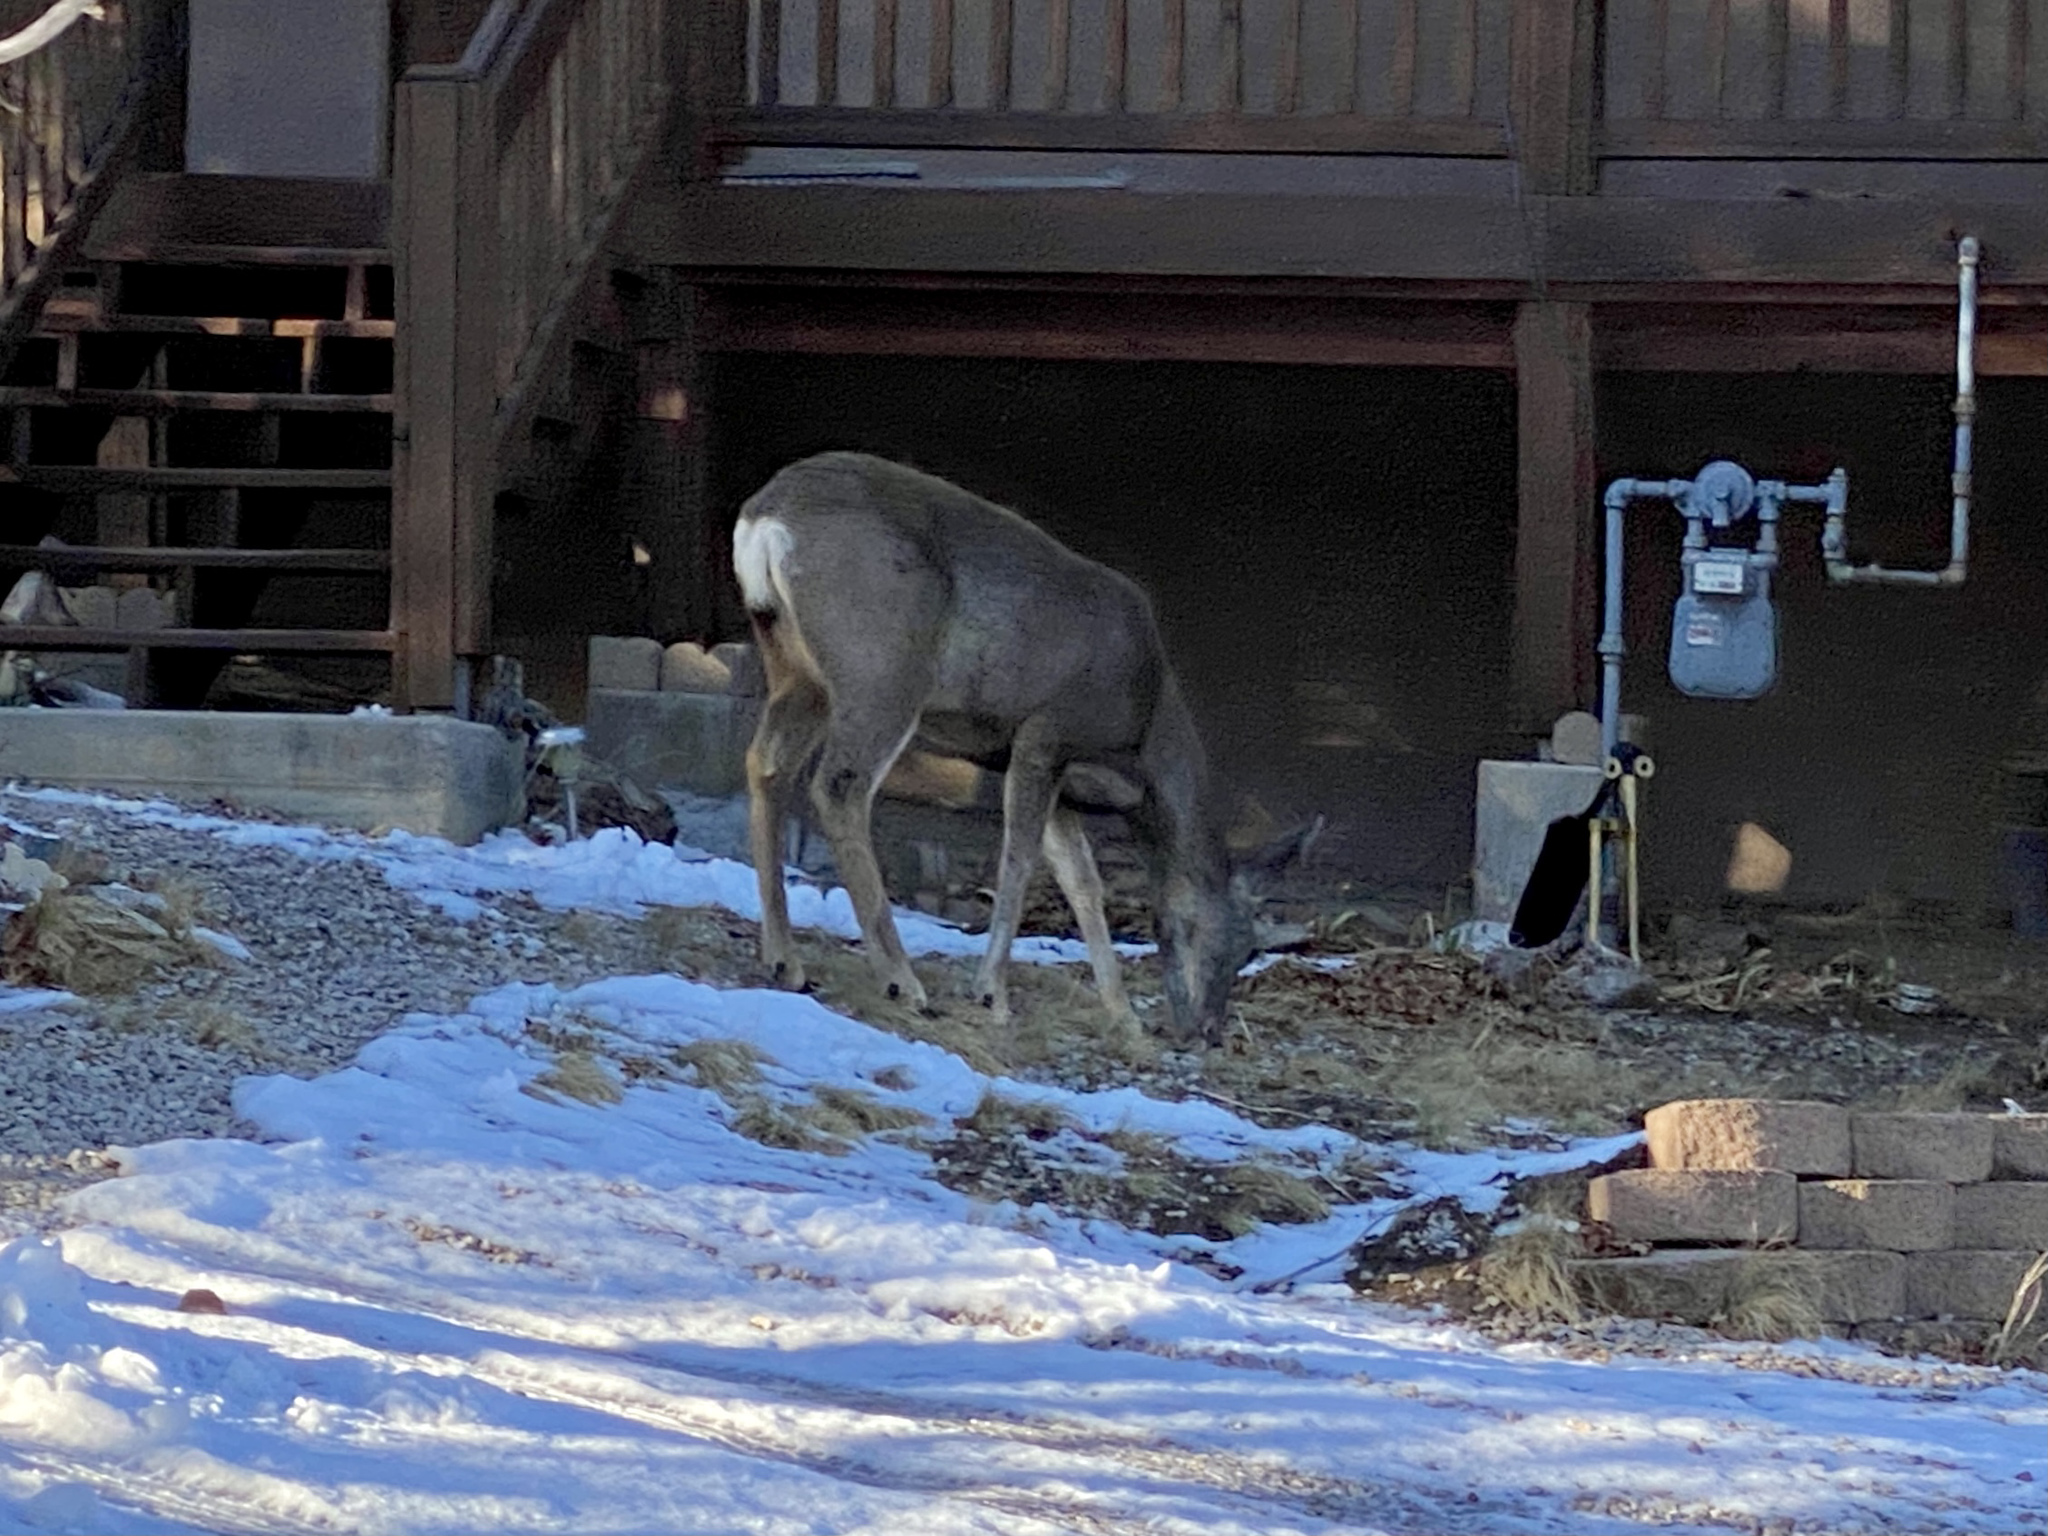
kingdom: Animalia
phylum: Chordata
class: Mammalia
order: Artiodactyla
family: Cervidae
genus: Odocoileus
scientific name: Odocoileus hemionus
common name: Mule deer
